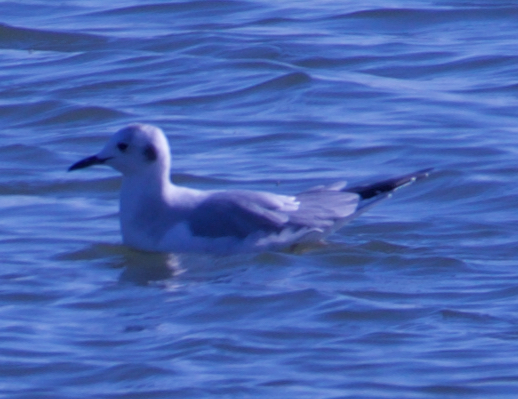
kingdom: Animalia
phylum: Chordata
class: Aves
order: Charadriiformes
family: Laridae
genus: Chroicocephalus
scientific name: Chroicocephalus philadelphia
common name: Bonaparte's gull
